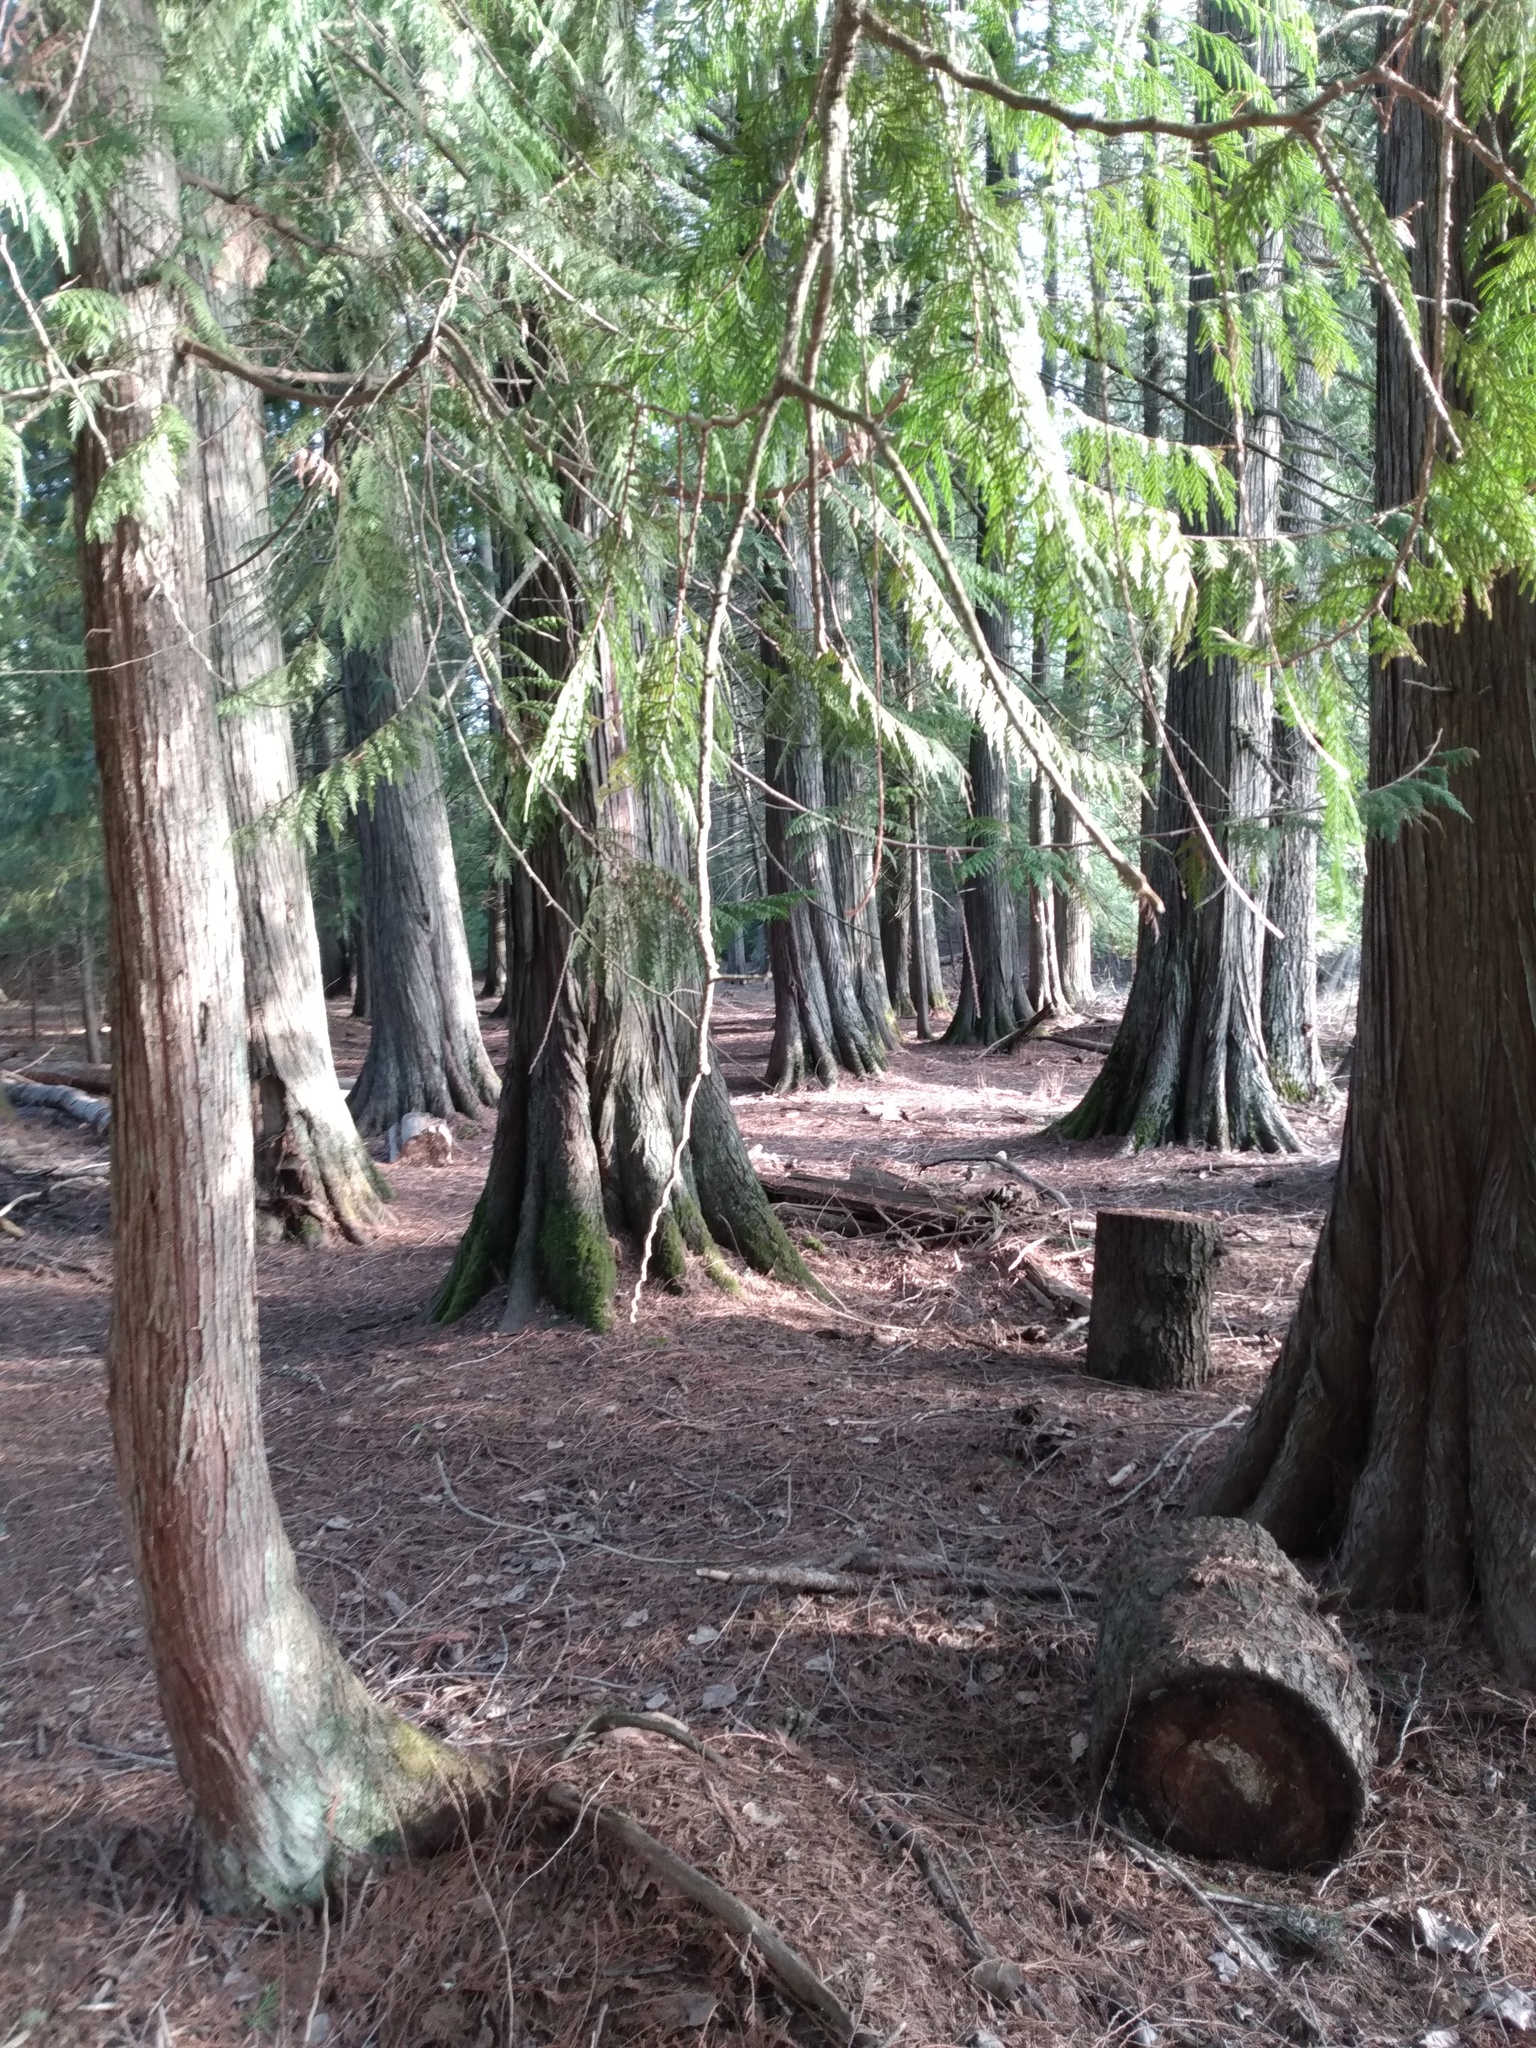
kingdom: Plantae
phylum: Tracheophyta
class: Pinopsida
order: Pinales
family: Cupressaceae
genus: Thuja
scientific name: Thuja plicata
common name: Western red-cedar
